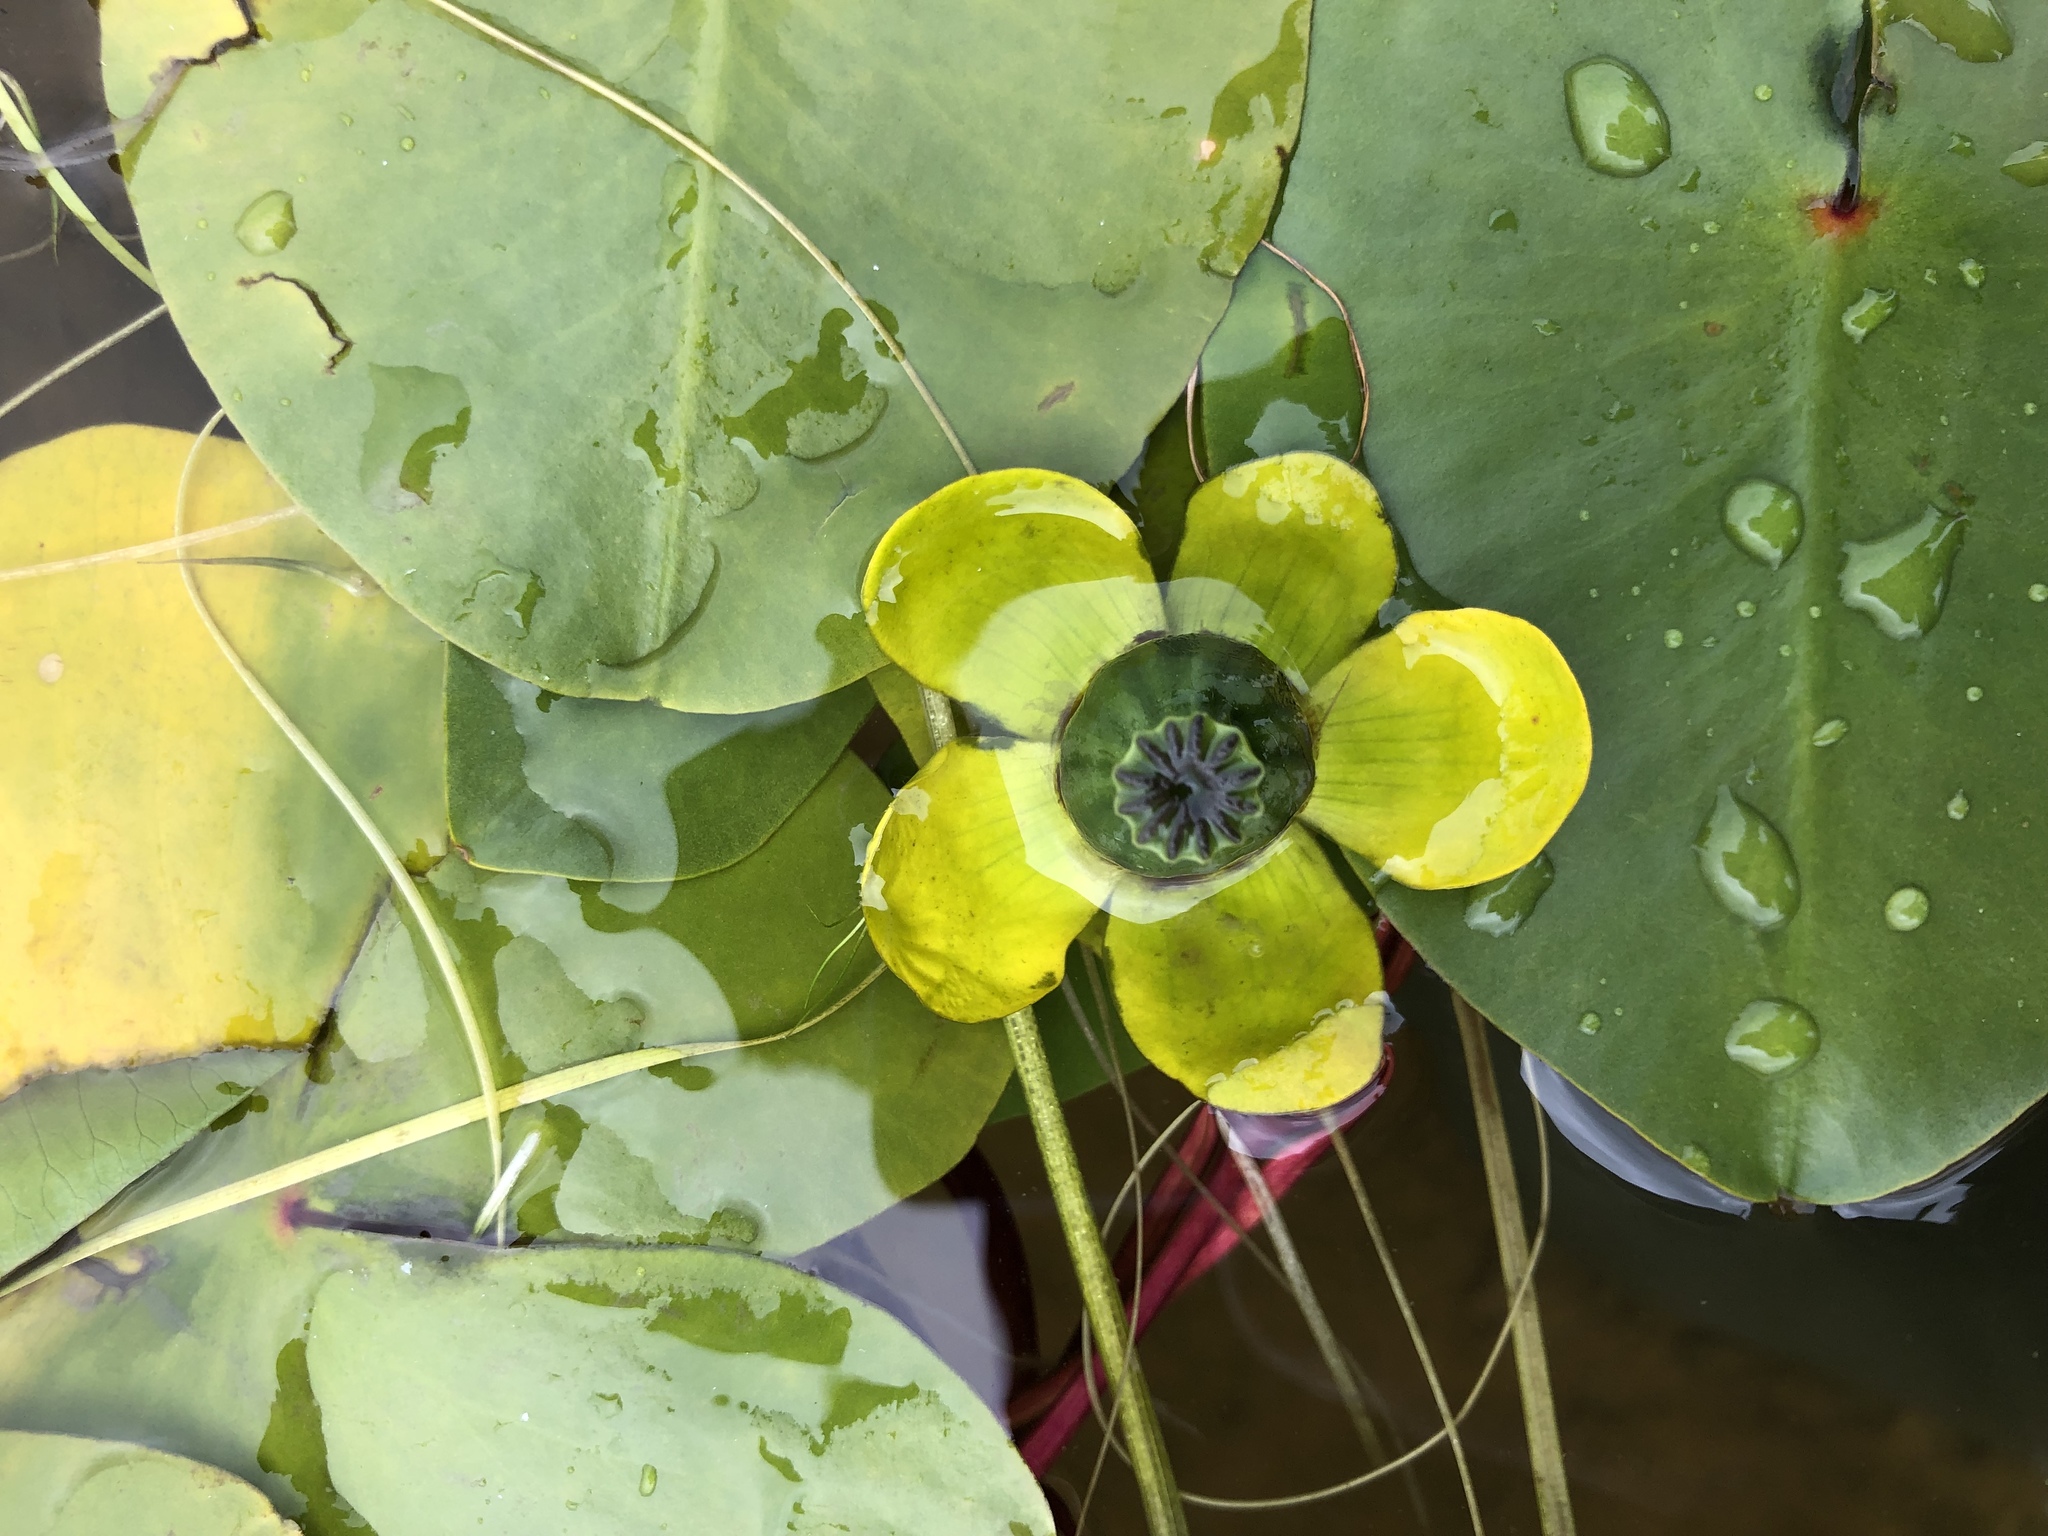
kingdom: Plantae
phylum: Tracheophyta
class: Magnoliopsida
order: Nymphaeales
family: Nymphaeaceae
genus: Nuphar
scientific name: Nuphar spenneriana
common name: Hybrid-water-lily
